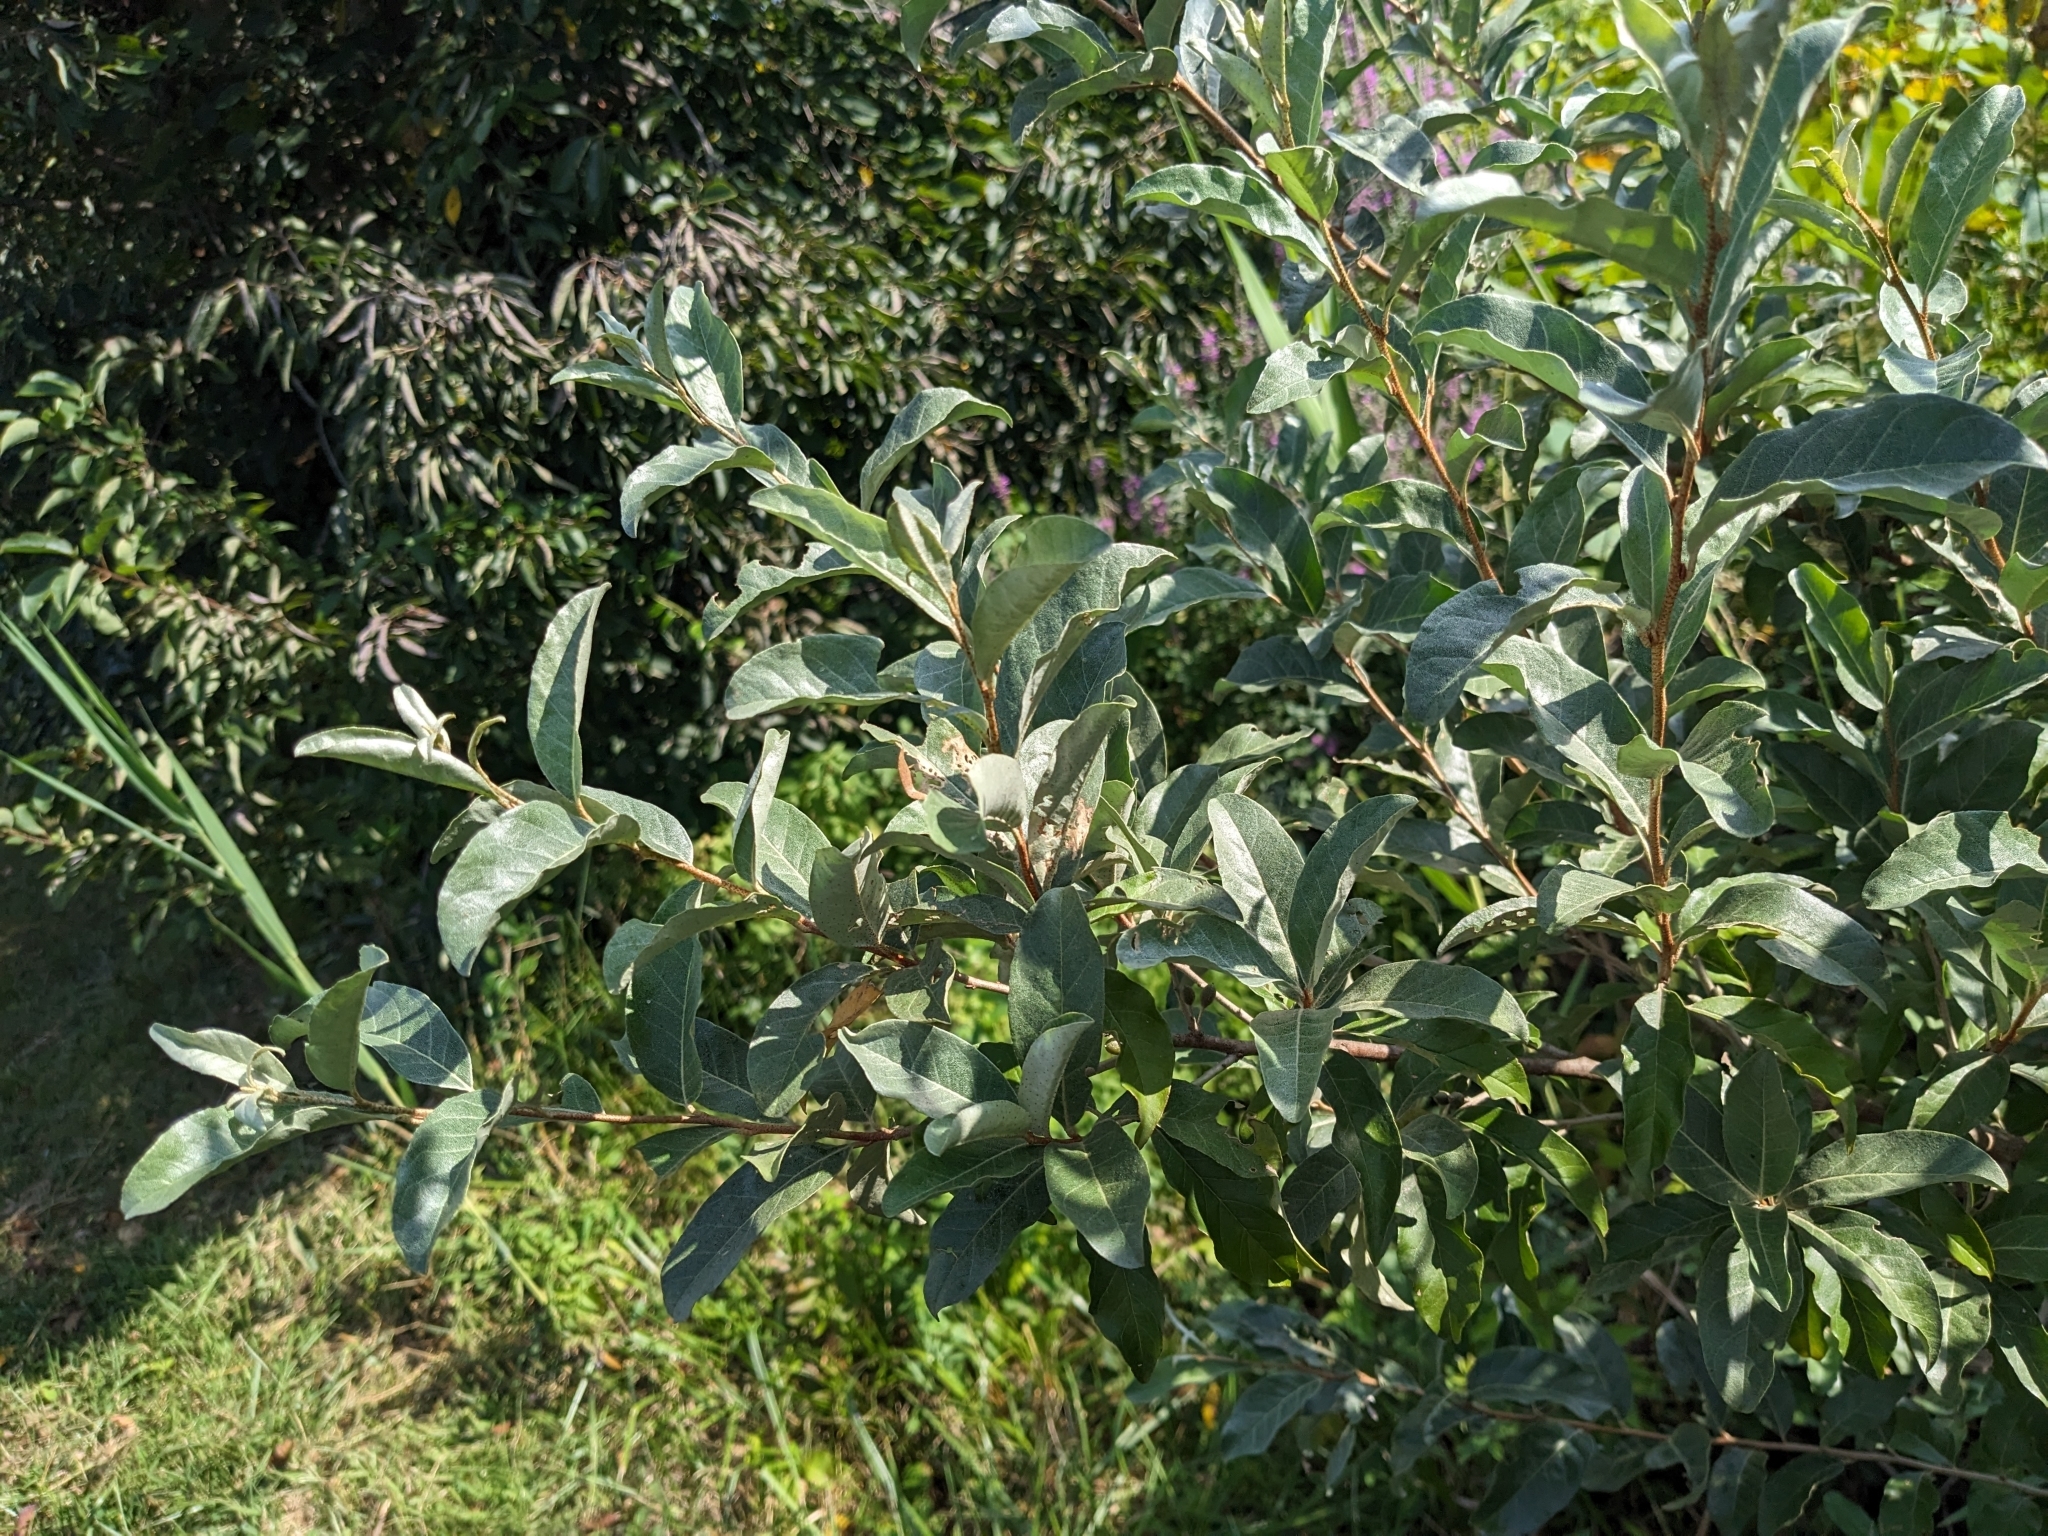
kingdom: Plantae
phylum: Tracheophyta
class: Magnoliopsida
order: Rosales
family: Elaeagnaceae
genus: Elaeagnus
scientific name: Elaeagnus umbellata
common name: Autumn olive
